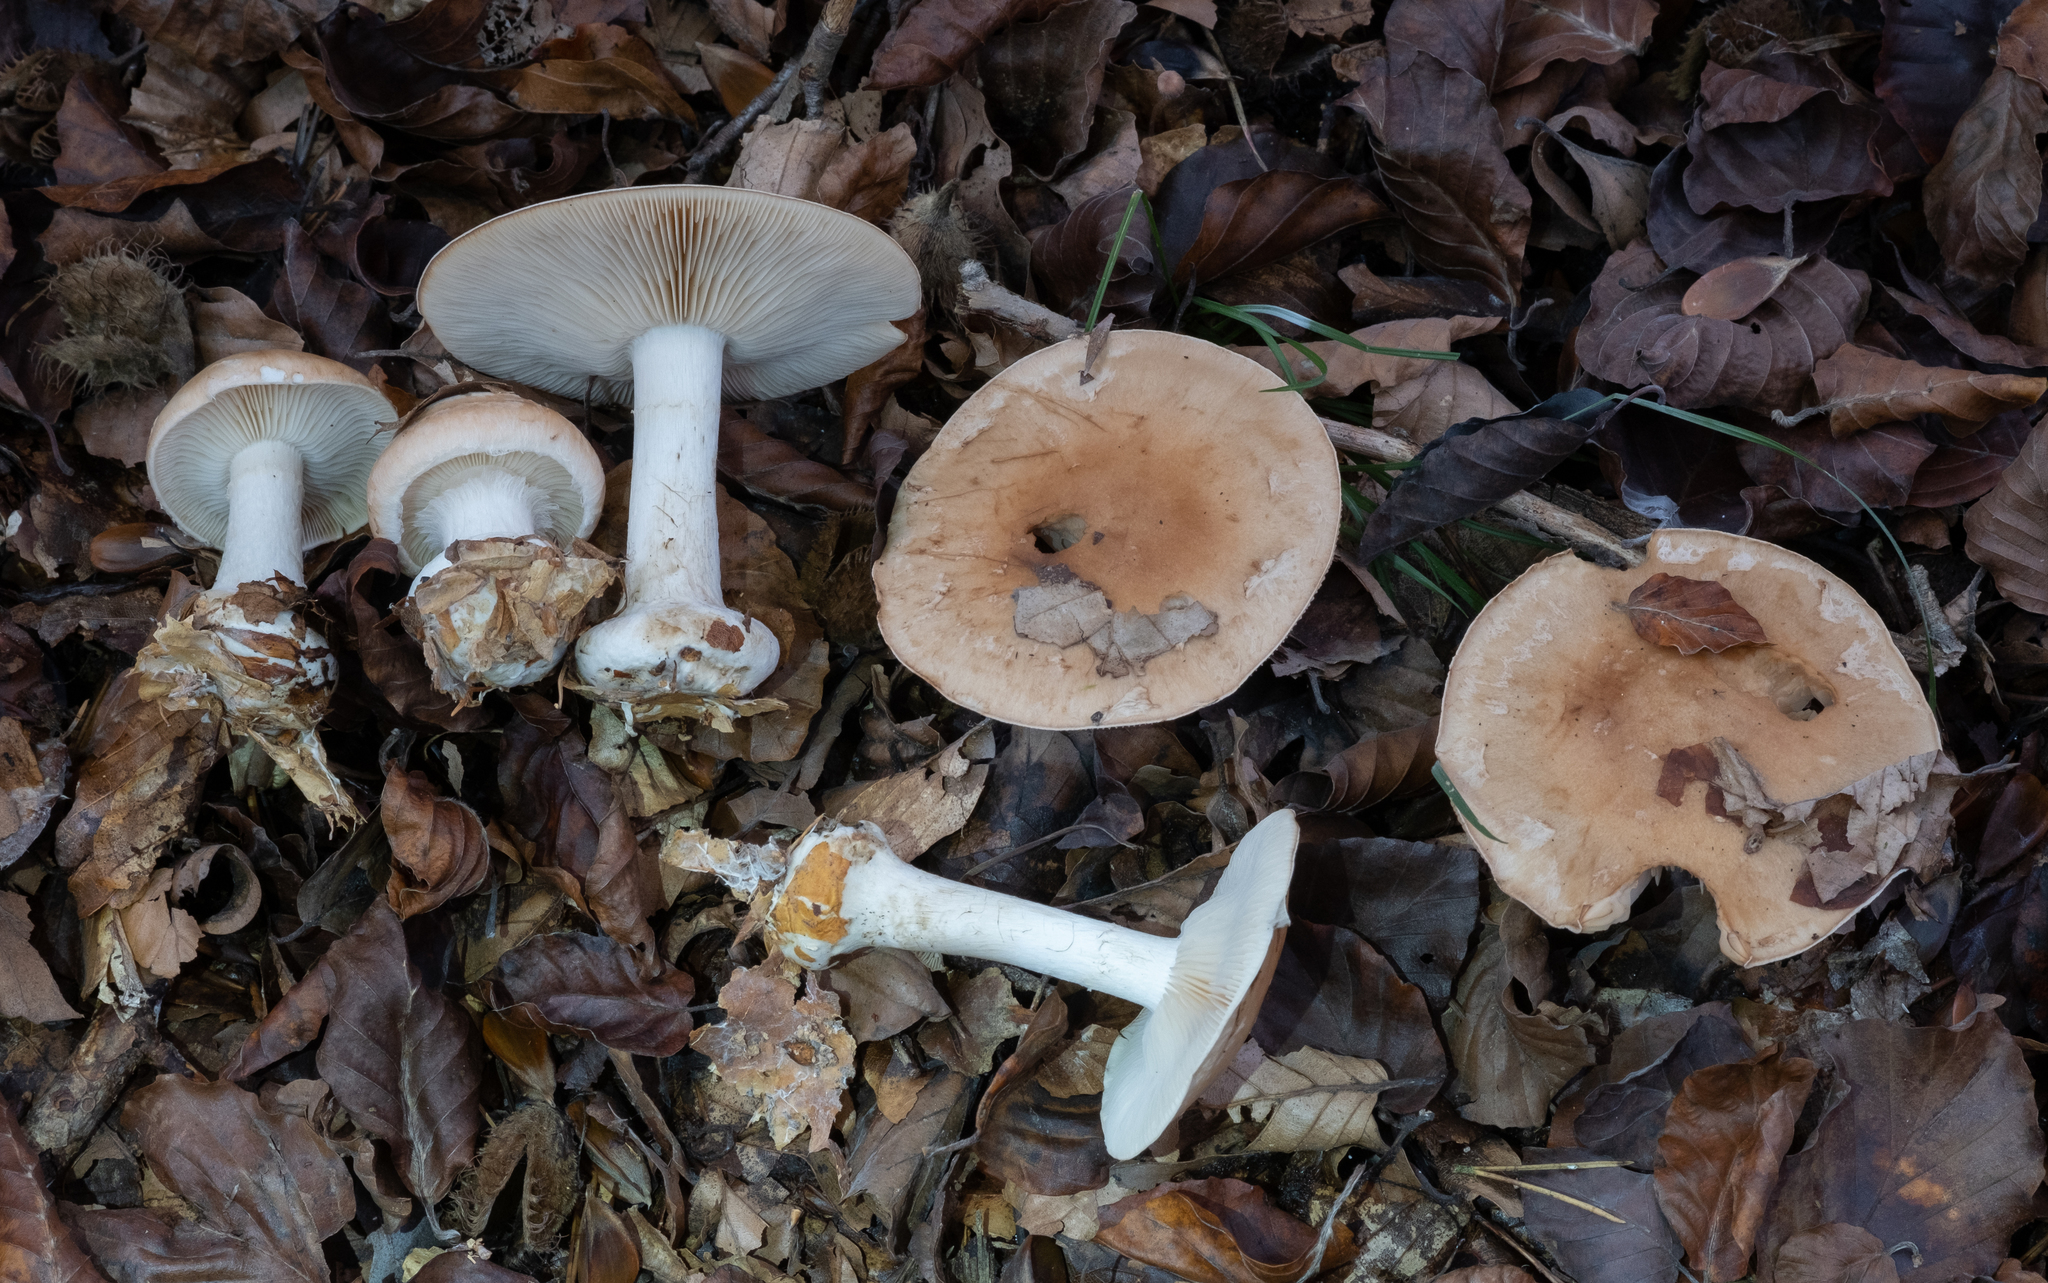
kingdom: Fungi
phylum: Basidiomycota
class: Agaricomycetes
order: Agaricales
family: Tricholomataceae
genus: Leucocortinarius
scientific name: Leucocortinarius bulbiger
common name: White webcap
